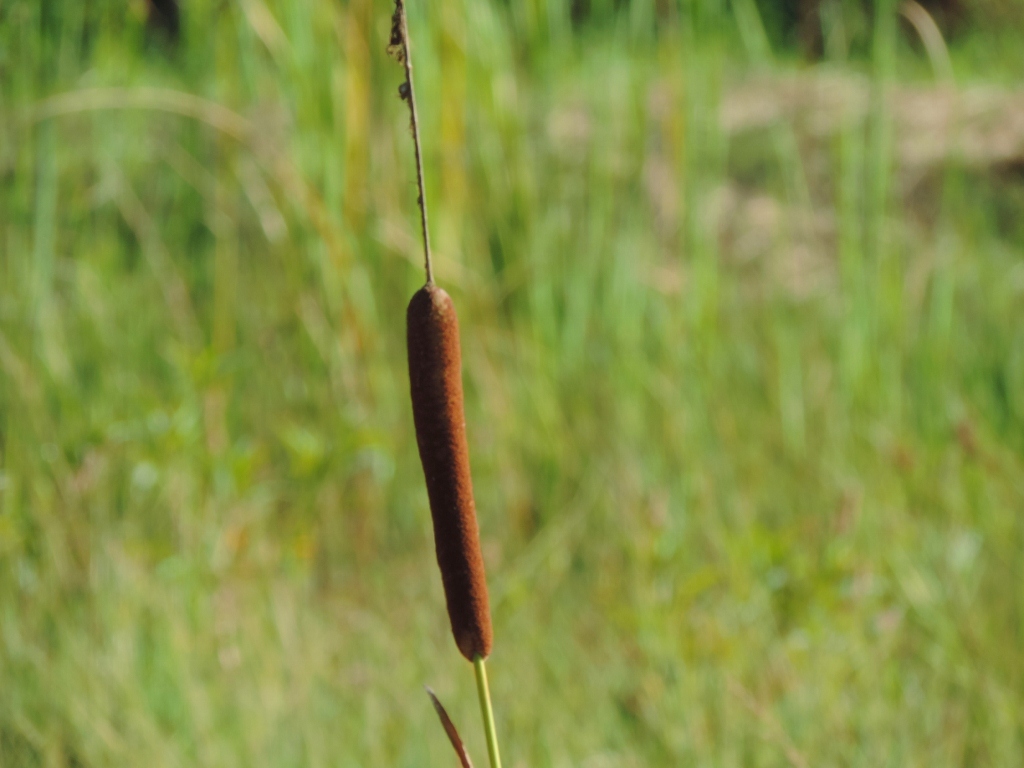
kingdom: Plantae
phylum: Tracheophyta
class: Liliopsida
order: Poales
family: Typhaceae
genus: Typha
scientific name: Typha capensis
